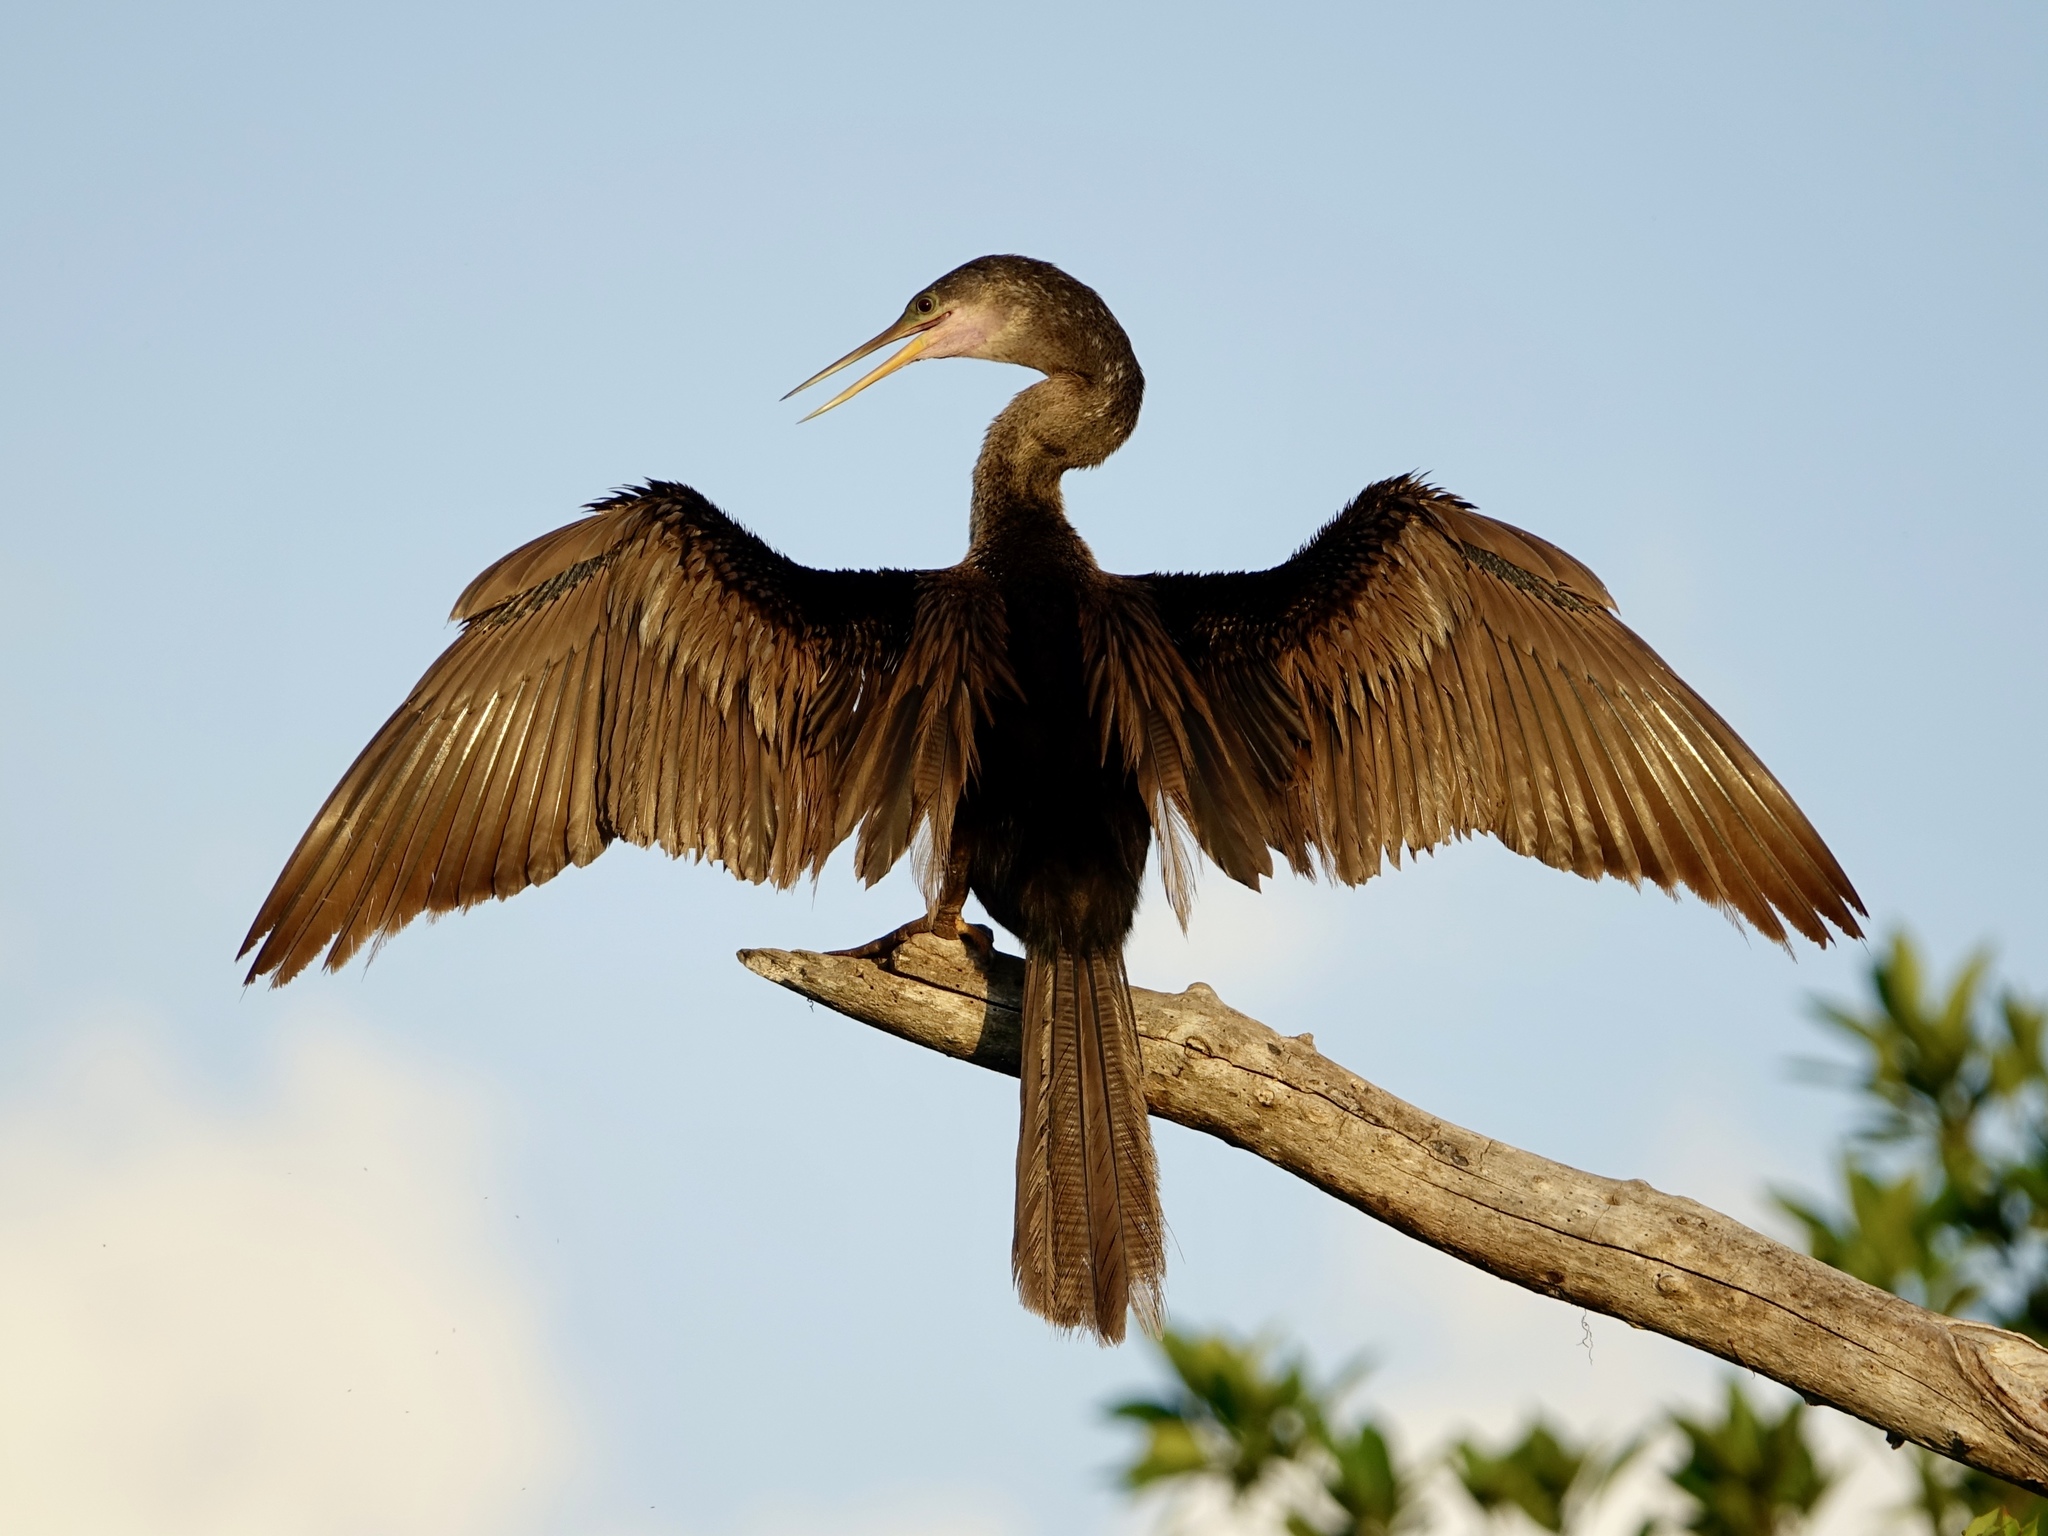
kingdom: Animalia
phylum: Chordata
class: Aves
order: Suliformes
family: Anhingidae
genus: Anhinga
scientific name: Anhinga anhinga
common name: Anhinga
